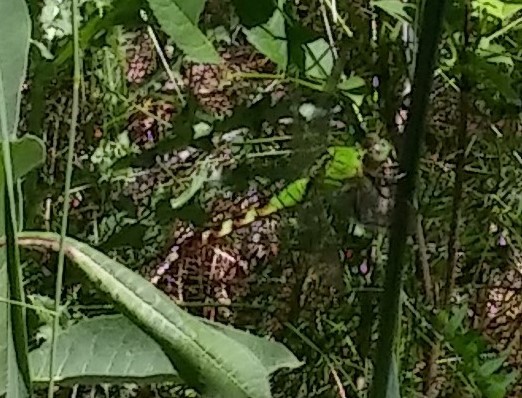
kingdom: Animalia
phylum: Arthropoda
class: Insecta
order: Odonata
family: Libellulidae
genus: Erythemis
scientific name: Erythemis simplicicollis
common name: Eastern pondhawk
